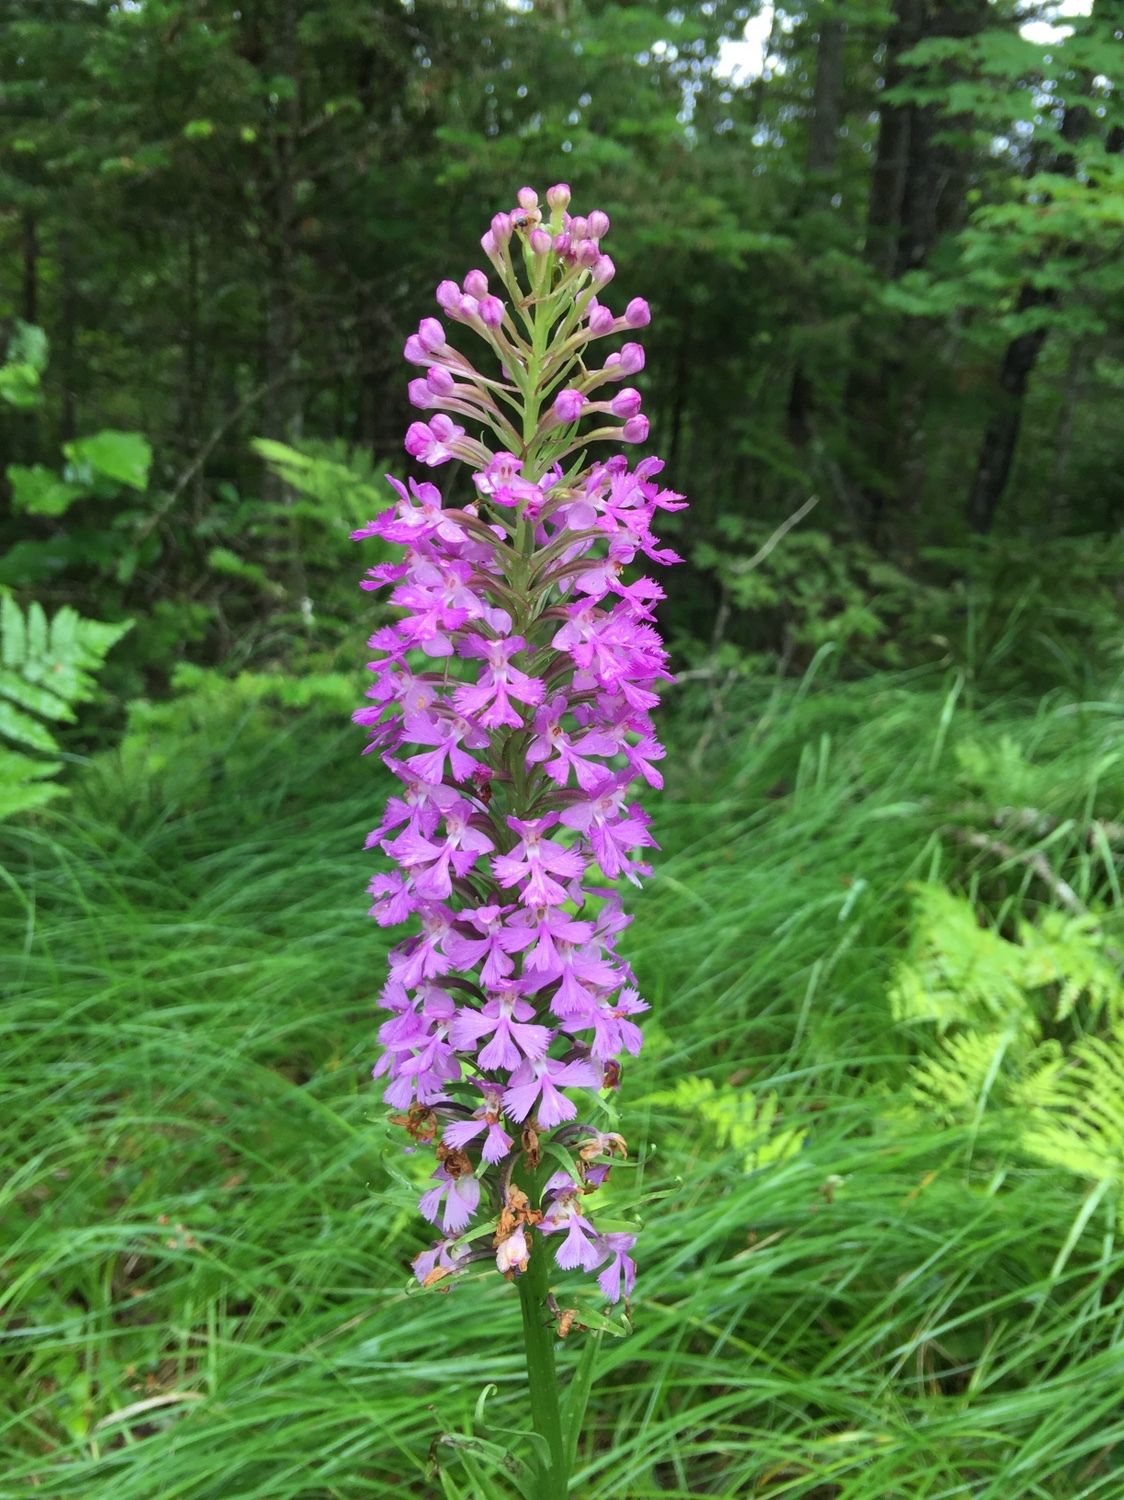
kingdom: Plantae
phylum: Tracheophyta
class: Liliopsida
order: Asparagales
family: Orchidaceae
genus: Platanthera
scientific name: Platanthera psycodes
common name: Lesser purple fringed orchid
